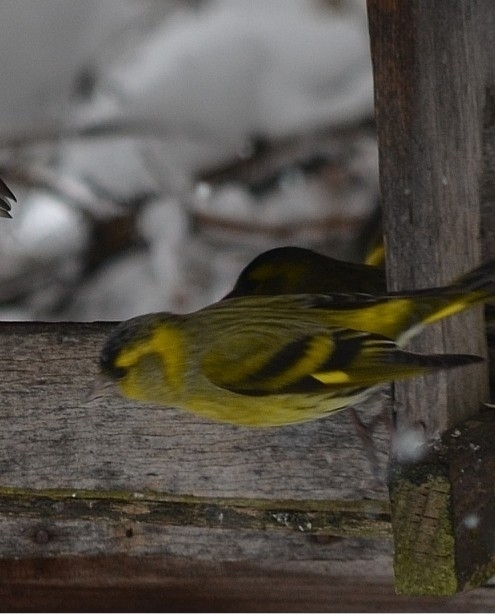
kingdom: Animalia
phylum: Chordata
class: Aves
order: Passeriformes
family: Fringillidae
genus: Spinus
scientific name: Spinus spinus
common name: Eurasian siskin
